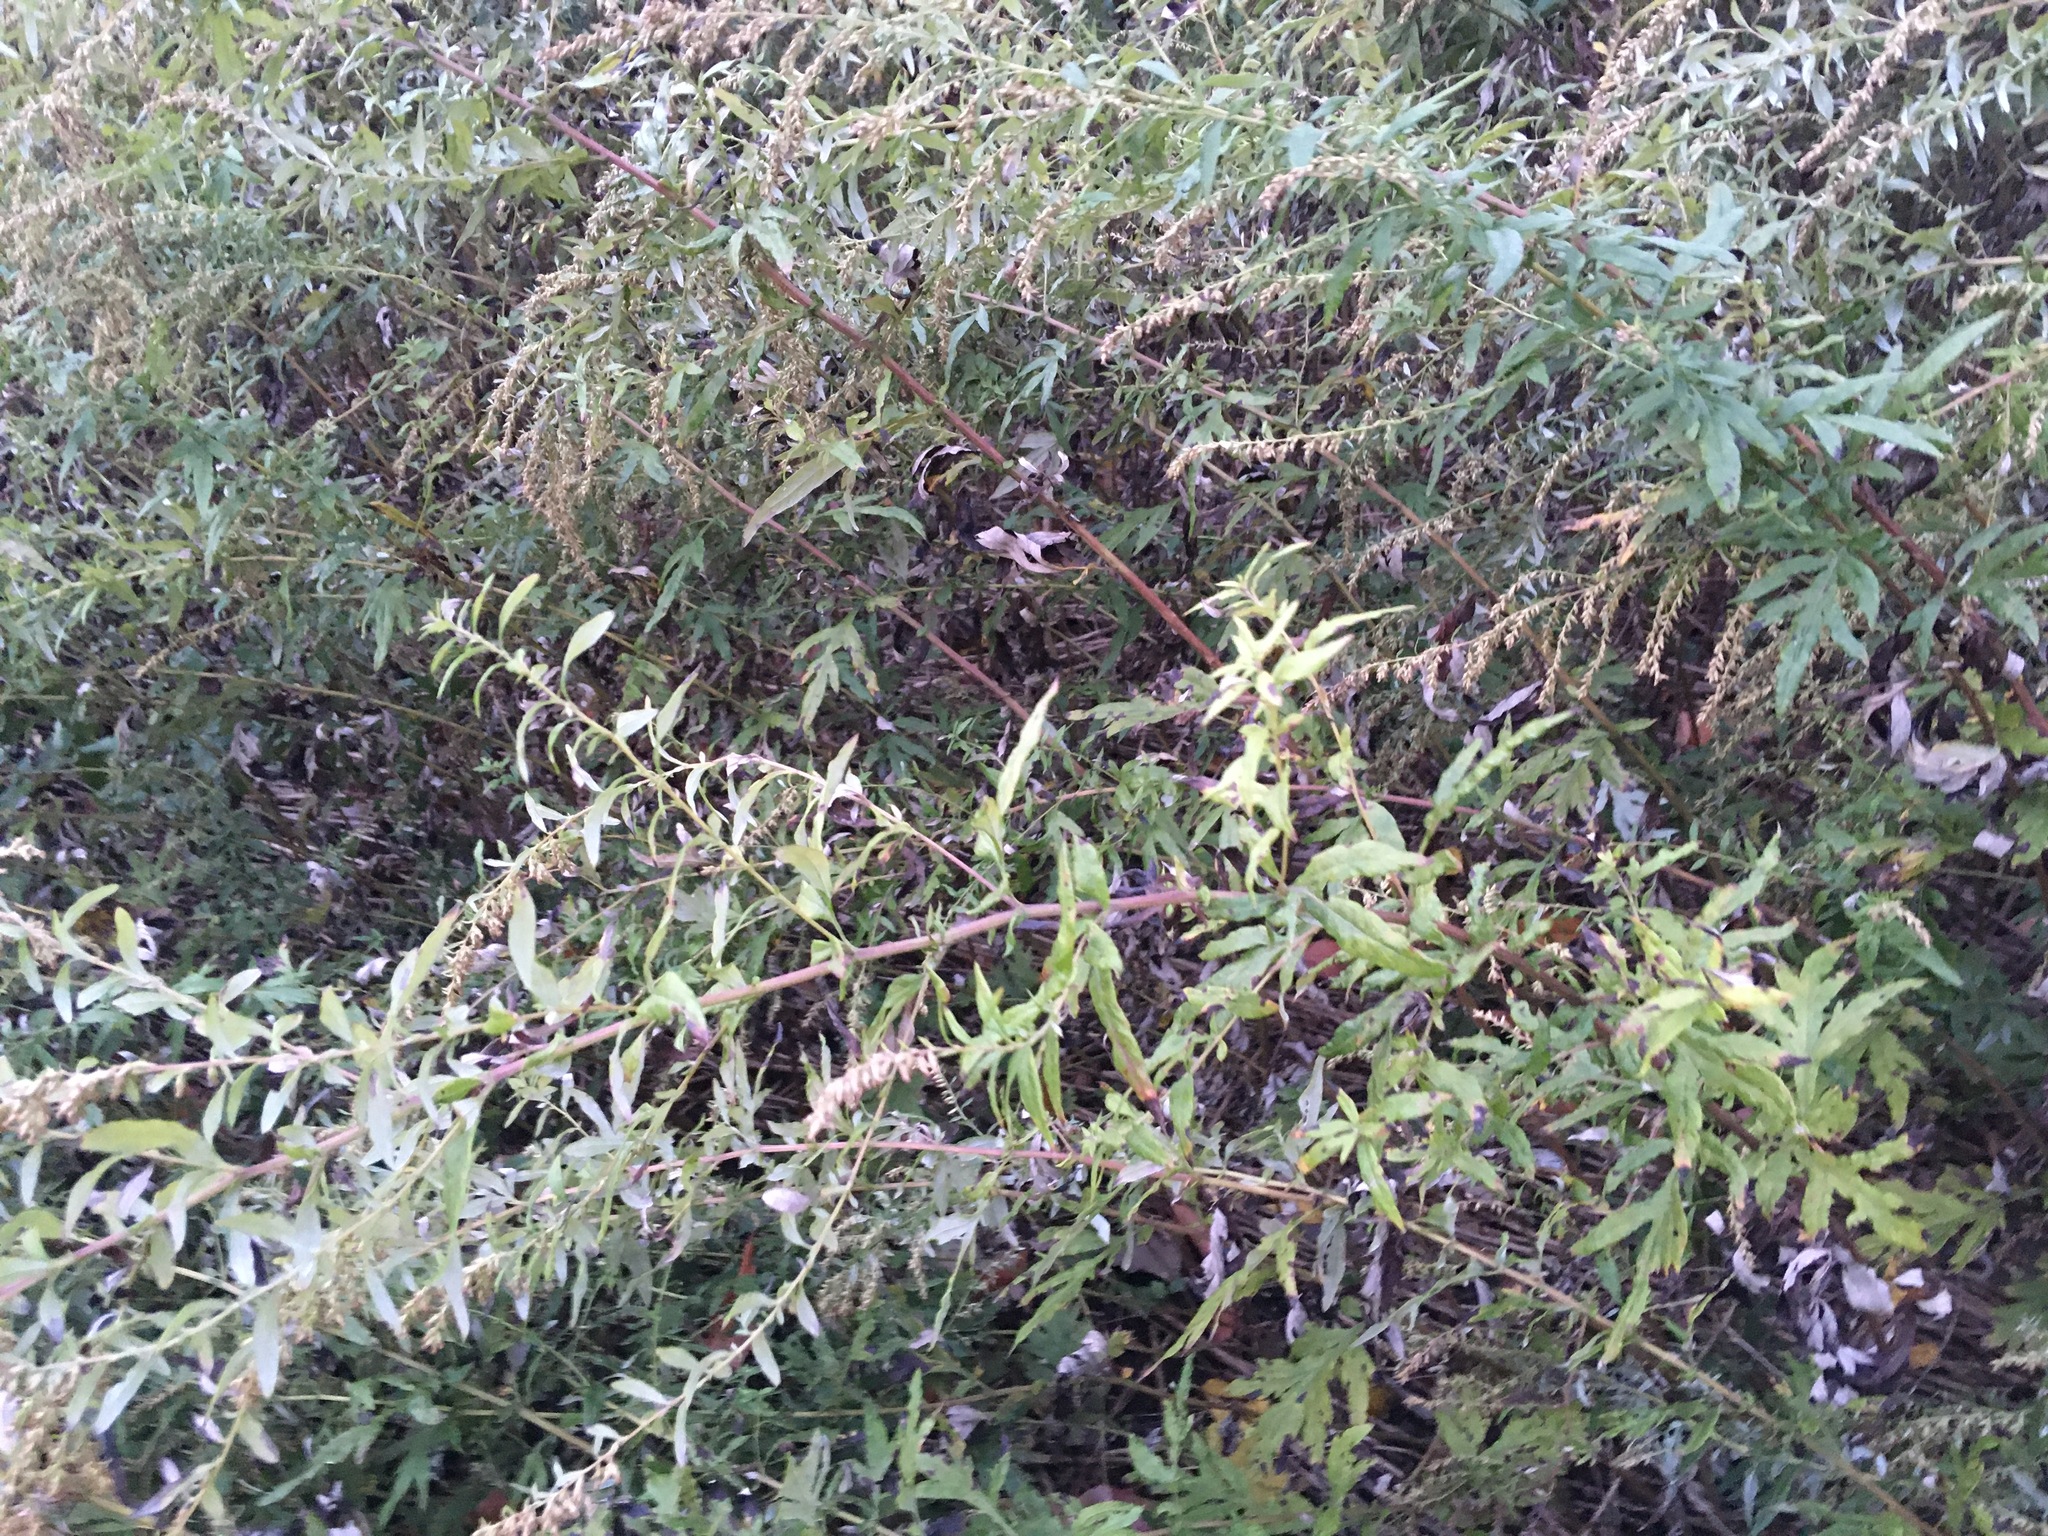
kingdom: Plantae
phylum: Tracheophyta
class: Magnoliopsida
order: Asterales
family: Asteraceae
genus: Artemisia
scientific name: Artemisia vulgaris
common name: Mugwort
